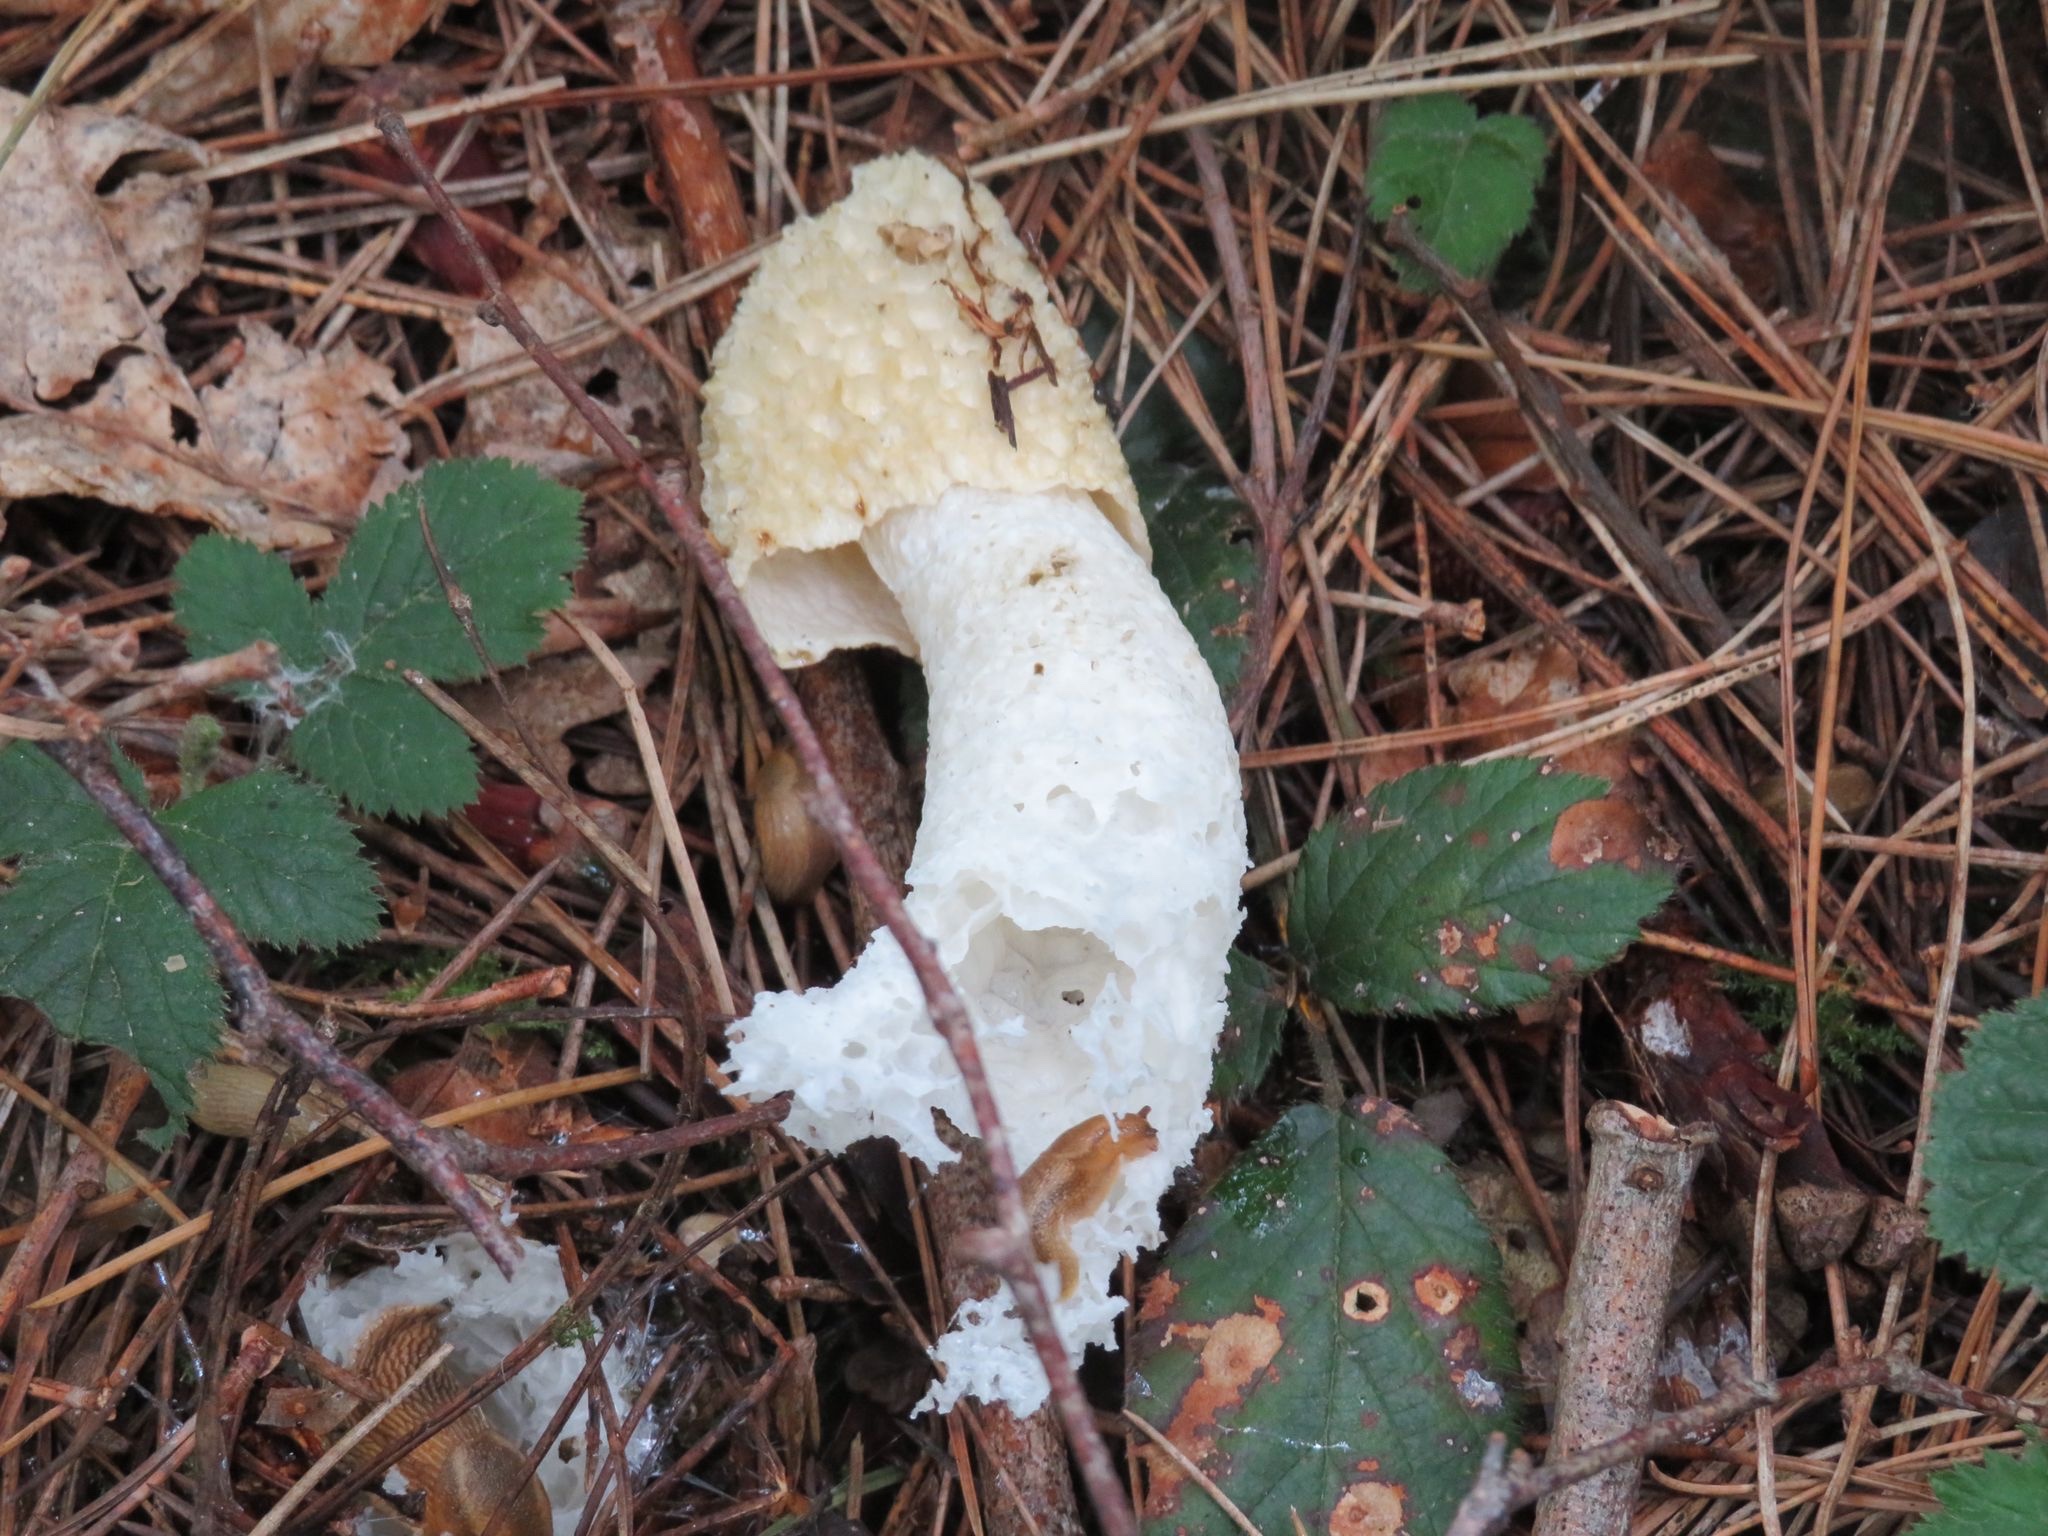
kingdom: Fungi
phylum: Basidiomycota
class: Agaricomycetes
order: Phallales
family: Phallaceae
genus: Phallus
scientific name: Phallus impudicus
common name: Common stinkhorn
